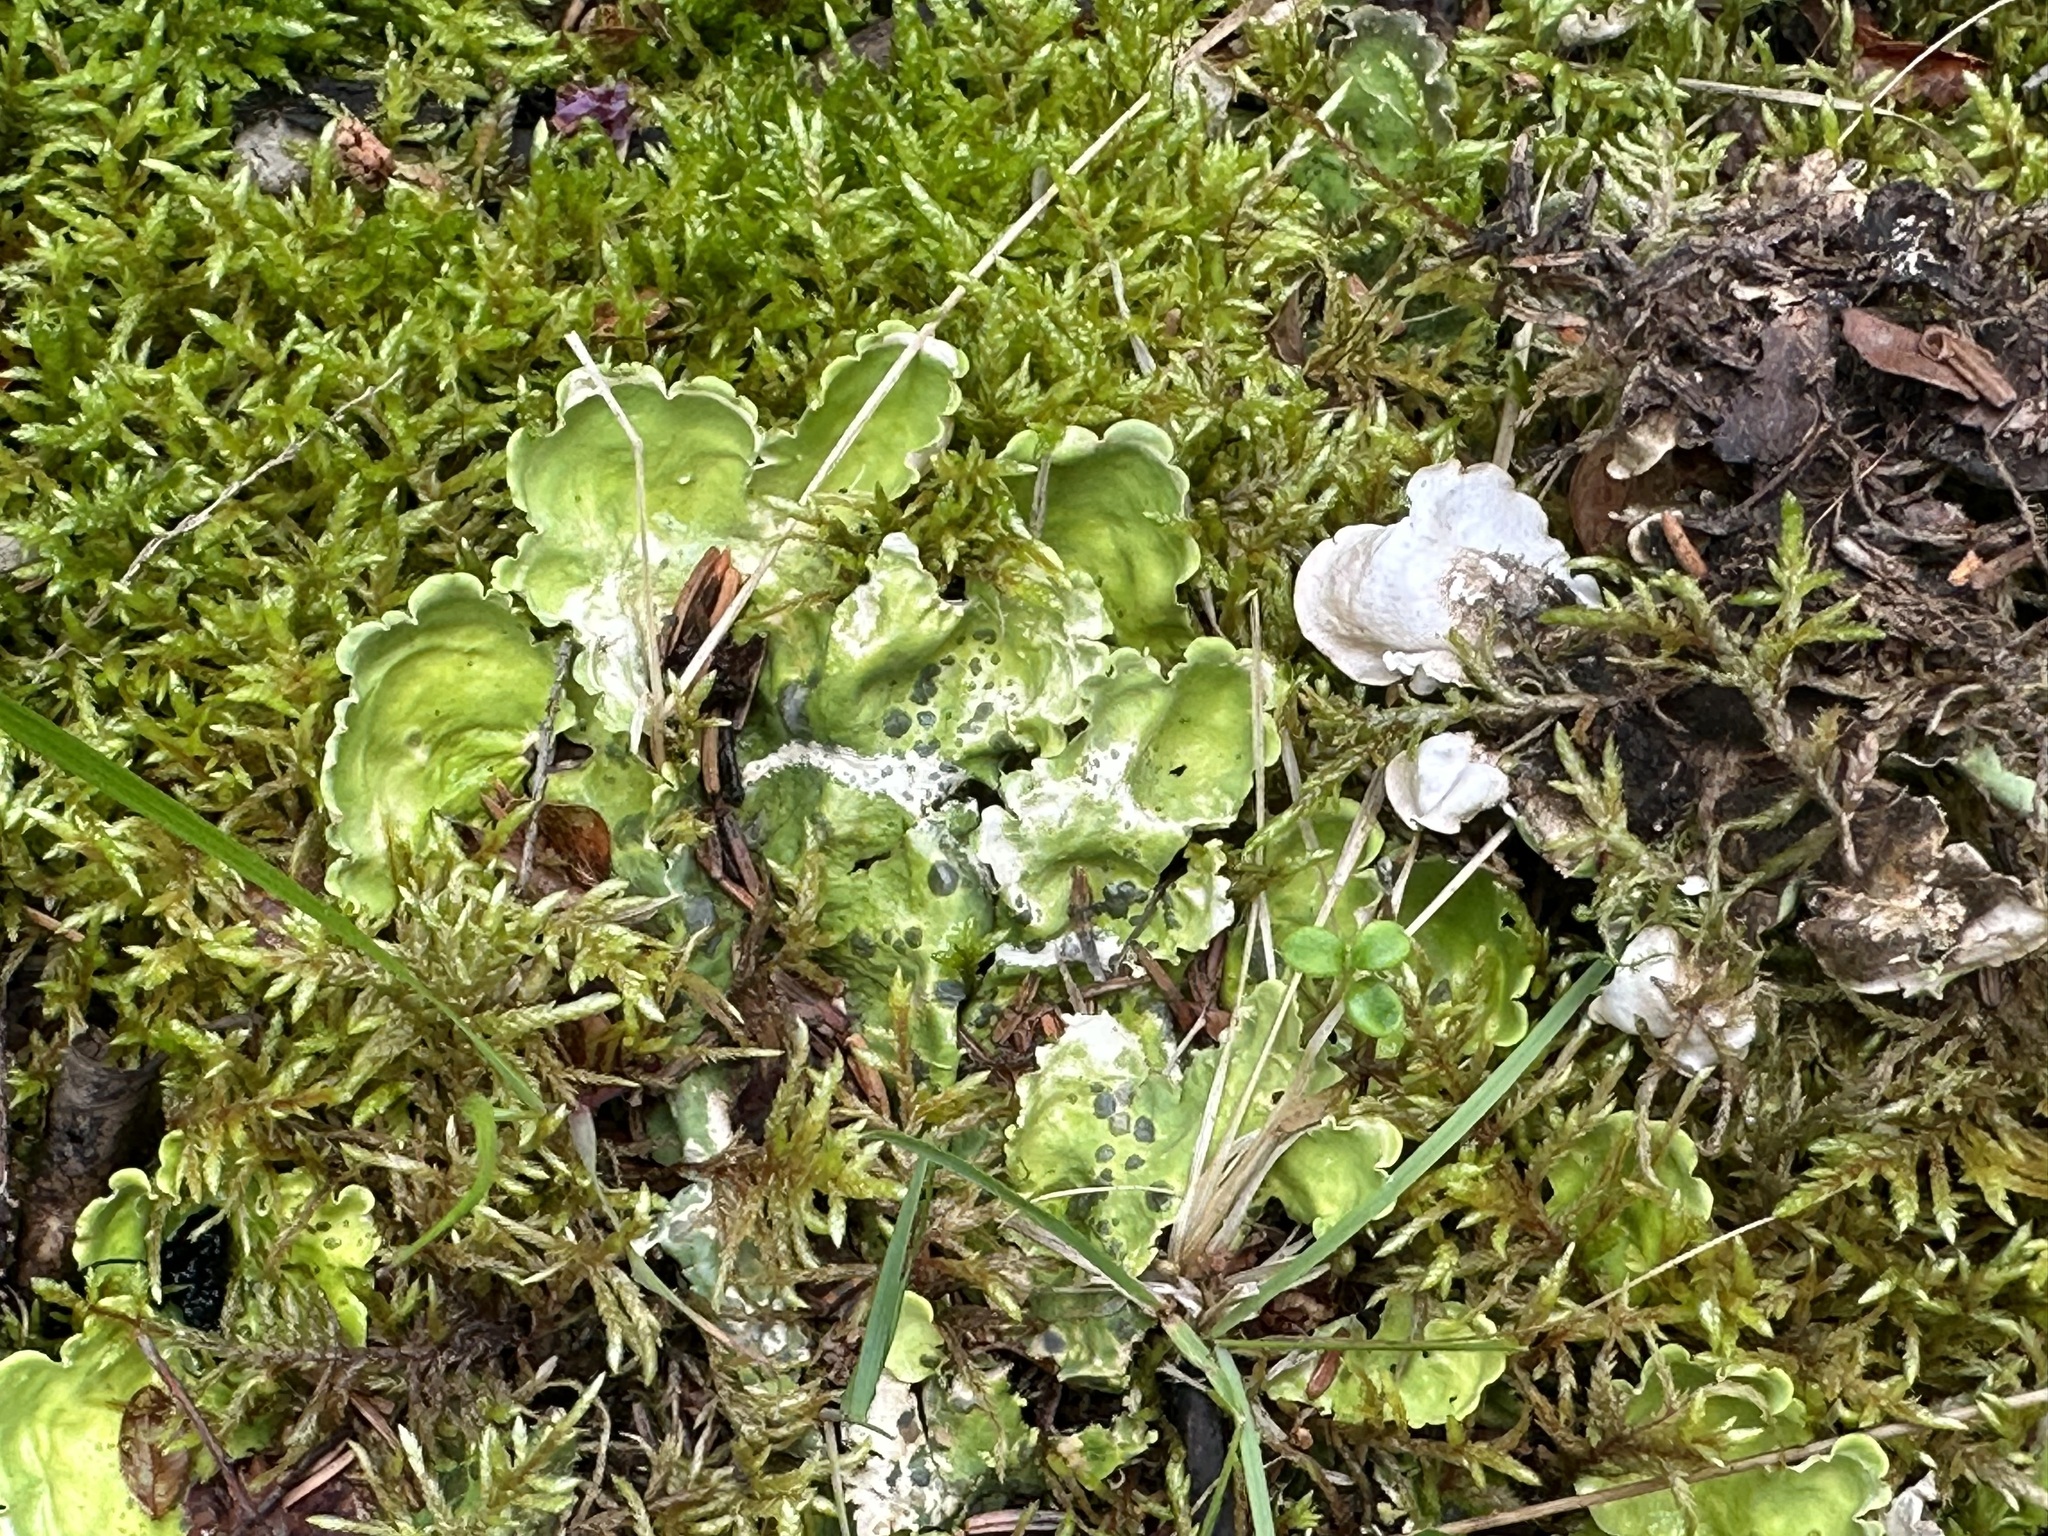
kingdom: Fungi
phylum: Ascomycota
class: Lecanoromycetes
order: Peltigerales
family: Nephromataceae
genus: Nephroma
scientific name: Nephroma arcticum
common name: Arctic kidney-lichen
